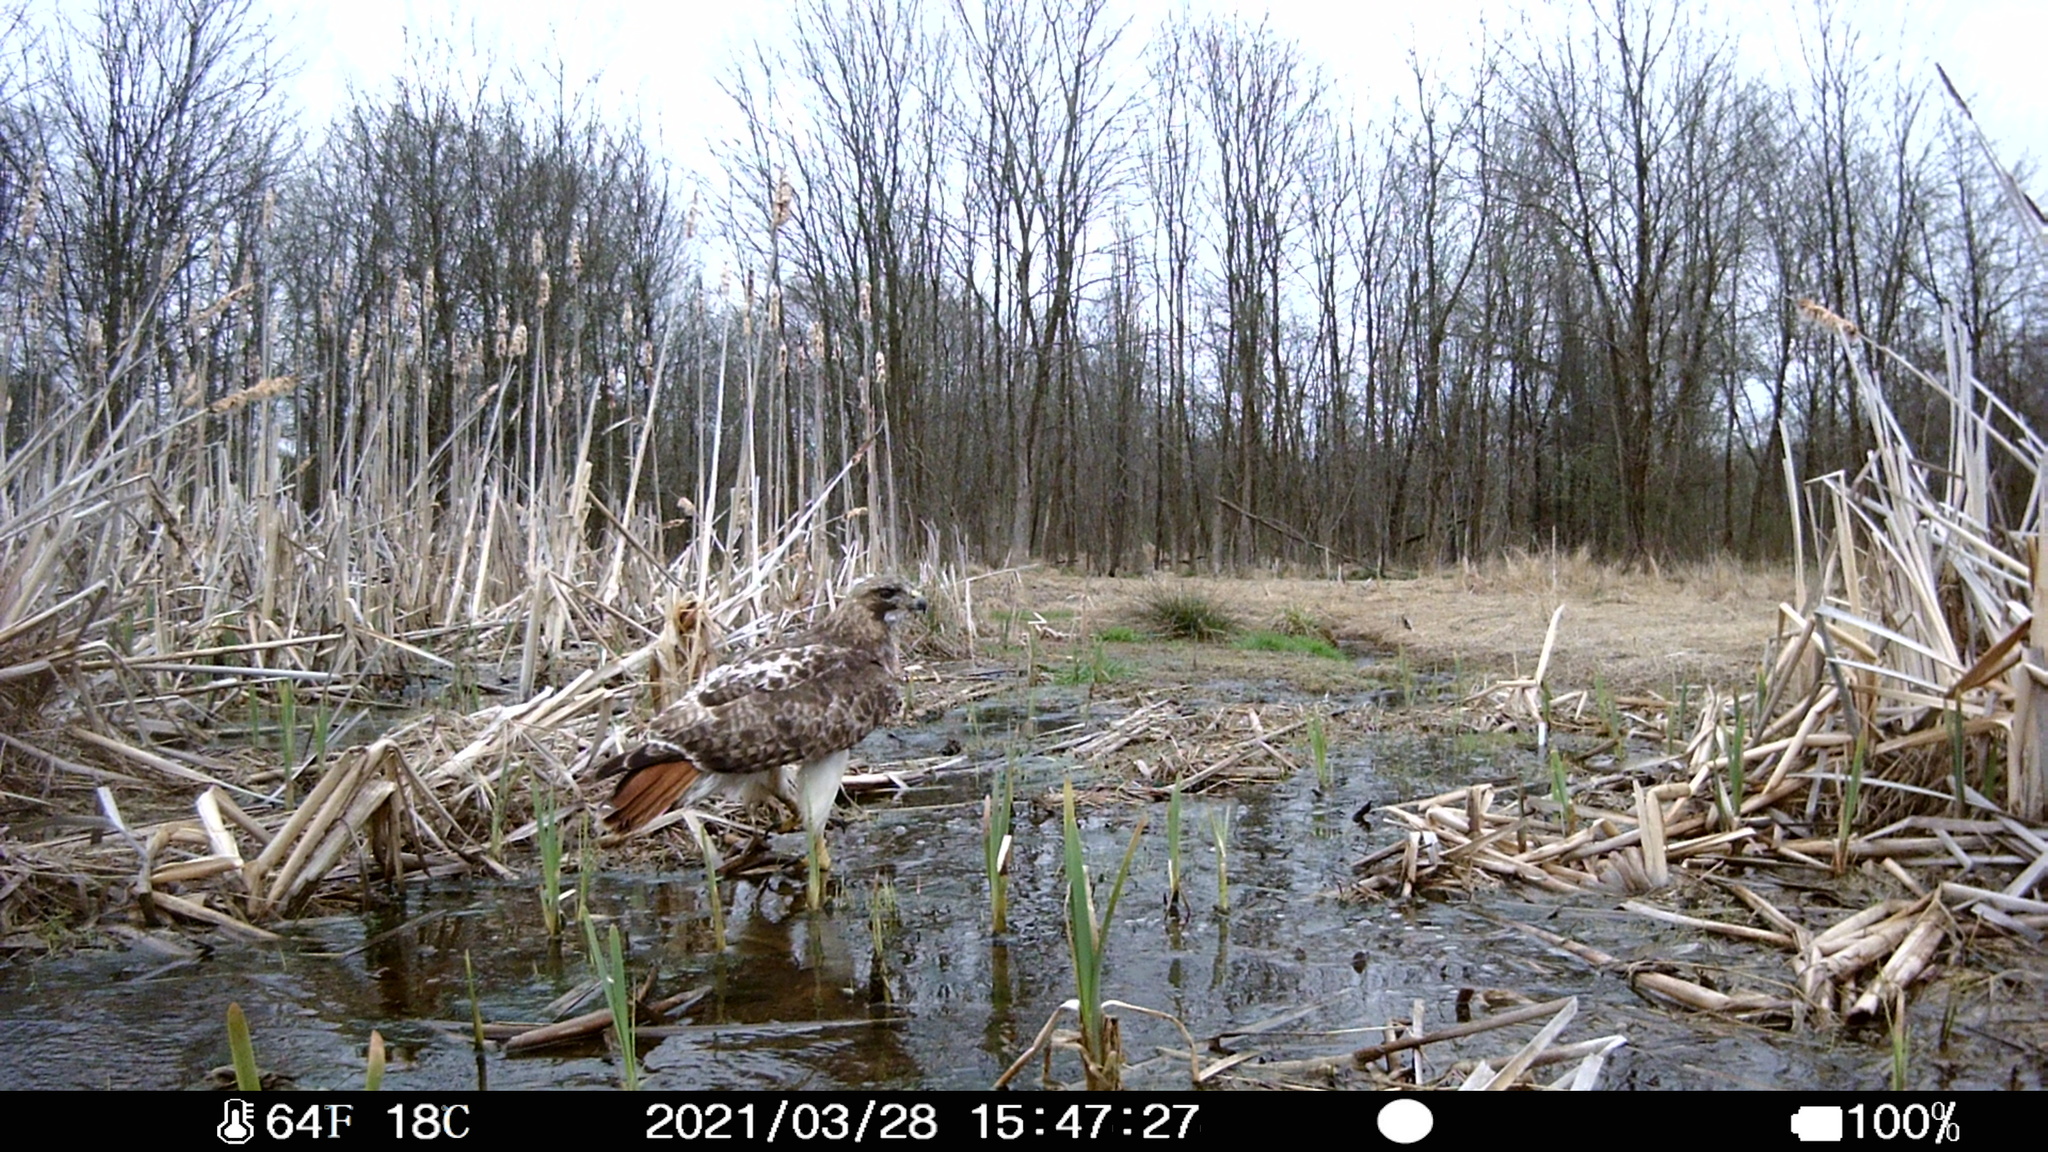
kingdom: Animalia
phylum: Chordata
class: Aves
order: Accipitriformes
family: Accipitridae
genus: Buteo
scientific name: Buteo jamaicensis
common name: Red-tailed hawk
